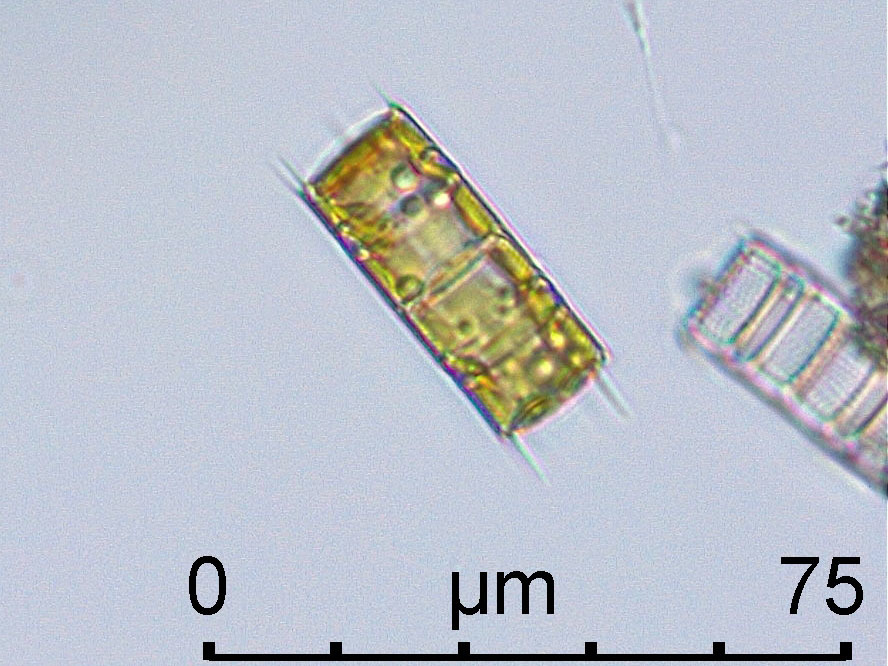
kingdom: Chromista
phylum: Ochrophyta
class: Bacillariophyceae
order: Aulacoseirales
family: Aulacoseiraceae
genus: Aulacoseira
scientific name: Aulacoseira granulata
